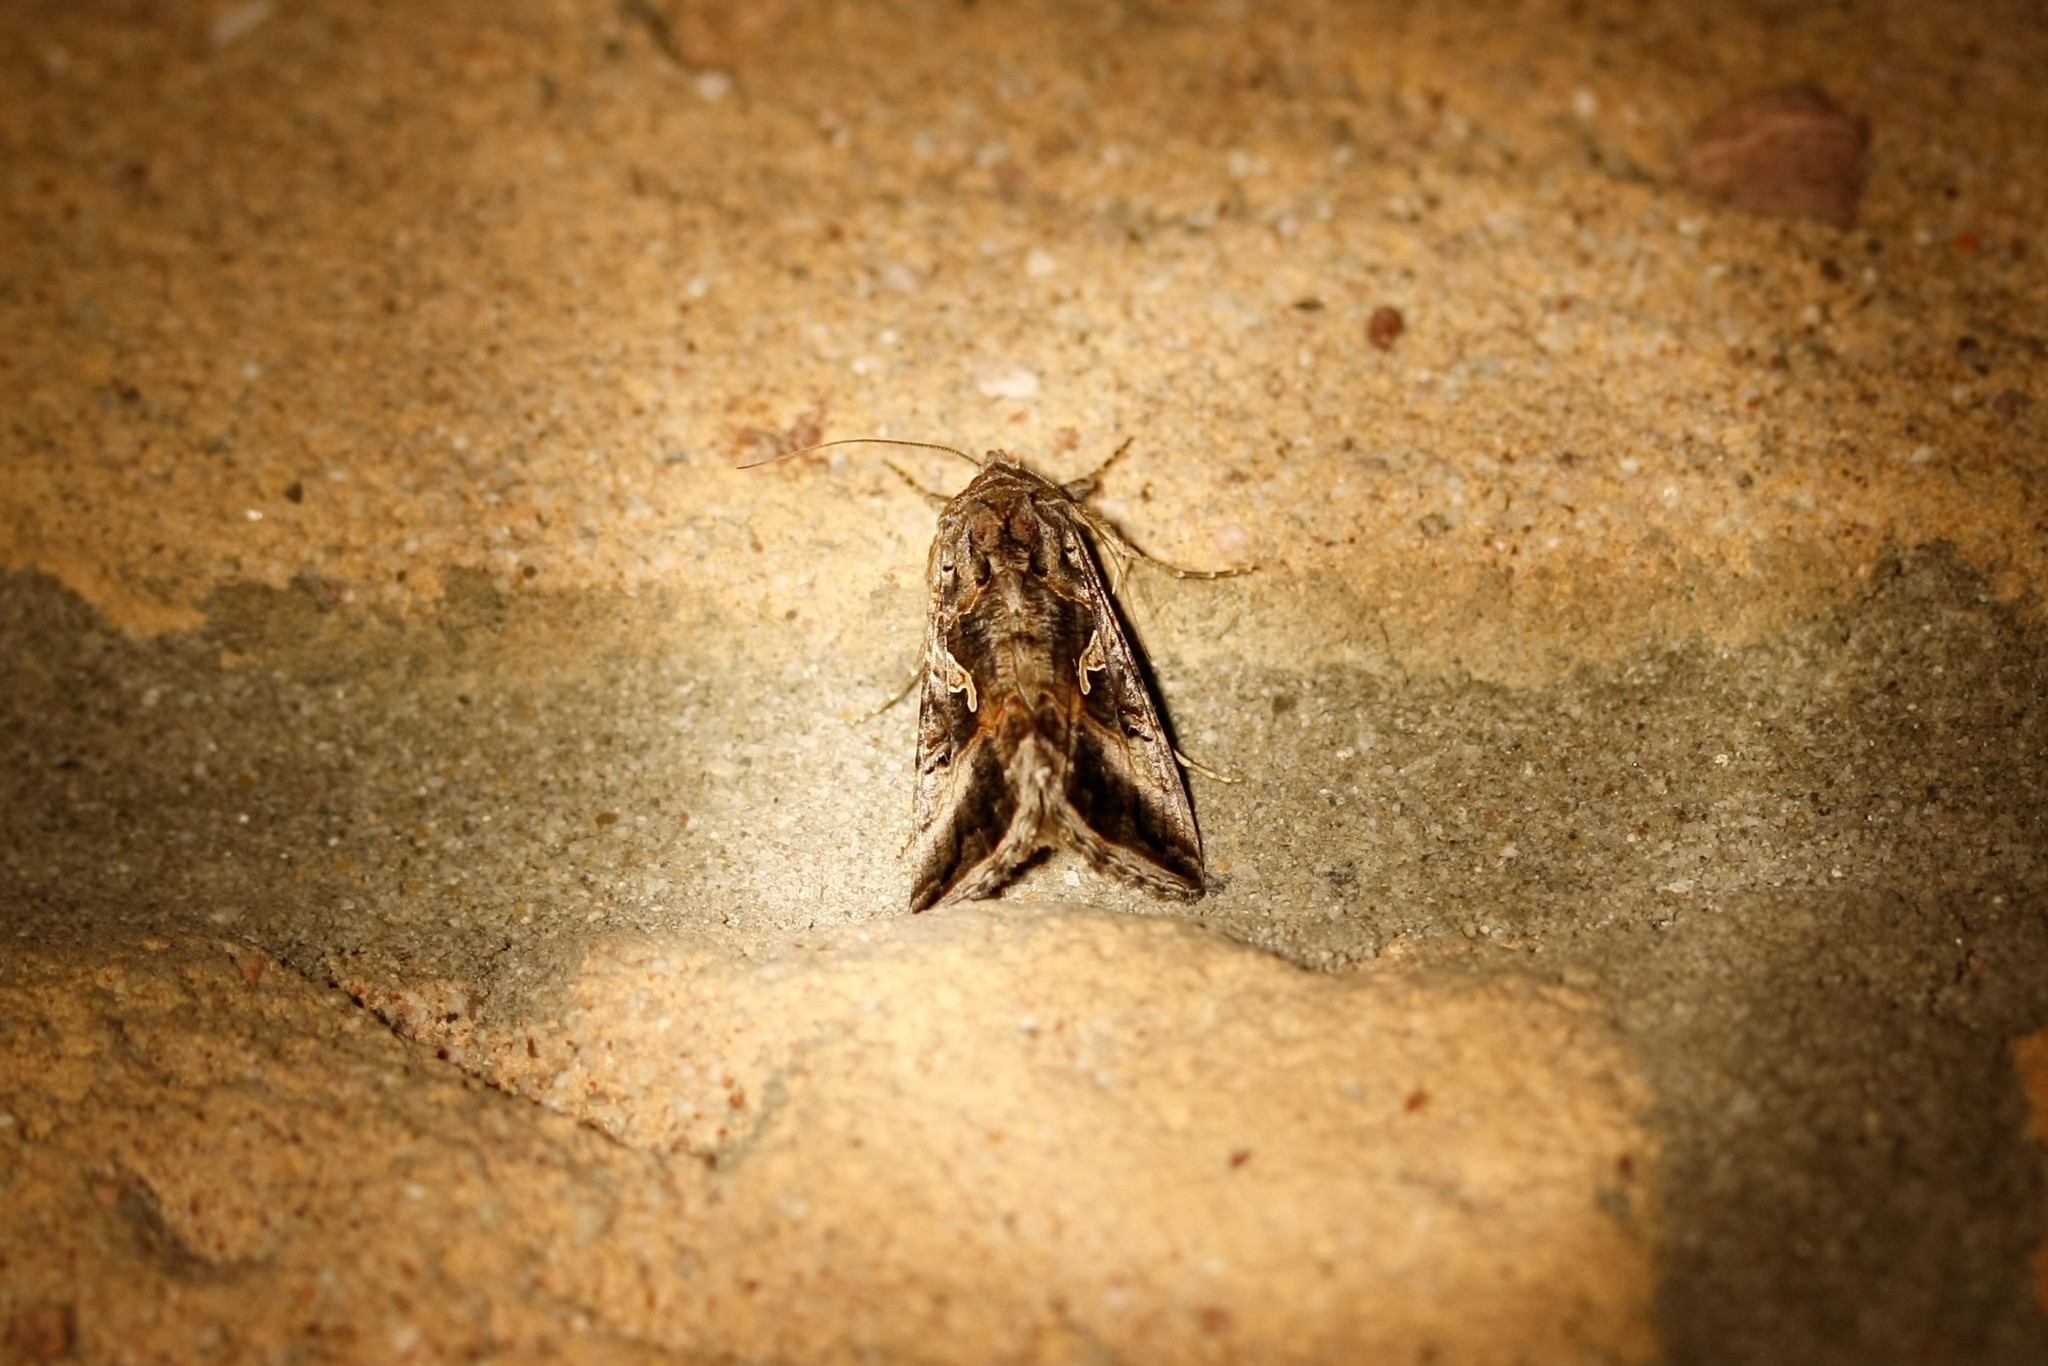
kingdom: Animalia
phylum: Arthropoda
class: Insecta
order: Lepidoptera
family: Noctuidae
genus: Autographa
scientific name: Autographa gamma
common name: Silver y
